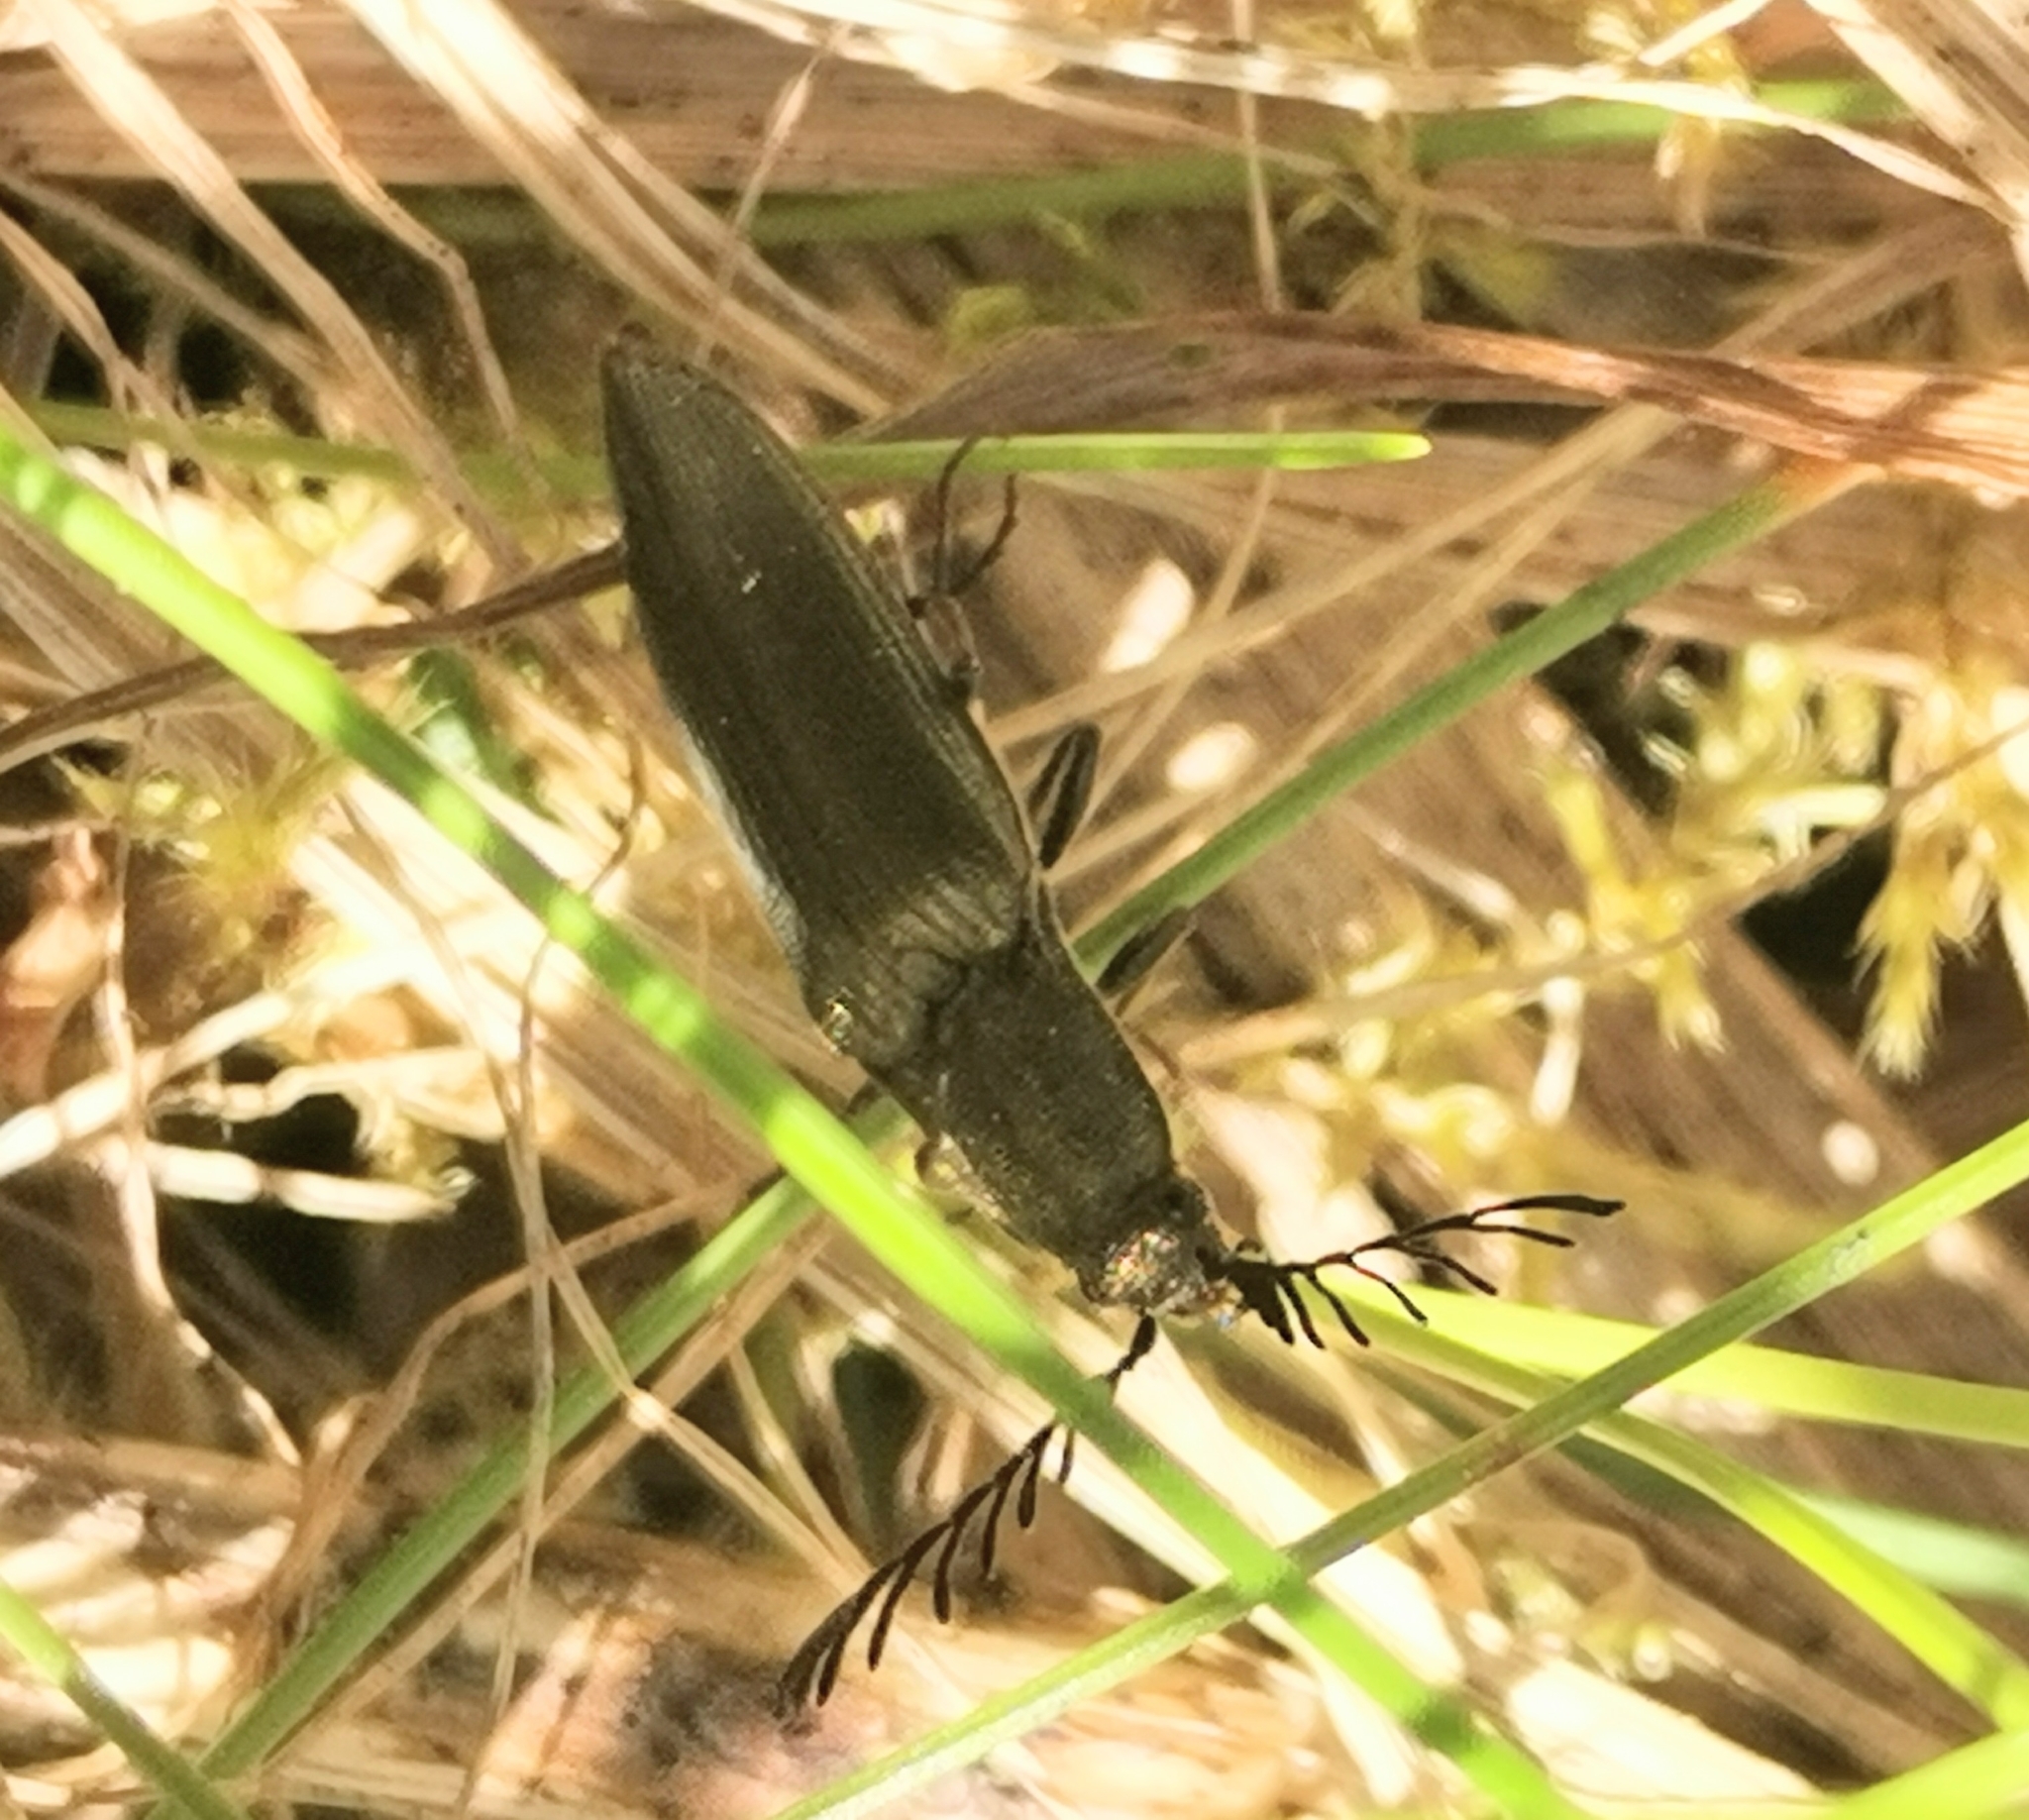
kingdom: Animalia
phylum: Arthropoda
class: Insecta
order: Coleoptera
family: Elateridae
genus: Ctenicera
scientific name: Ctenicera pectinicornis
